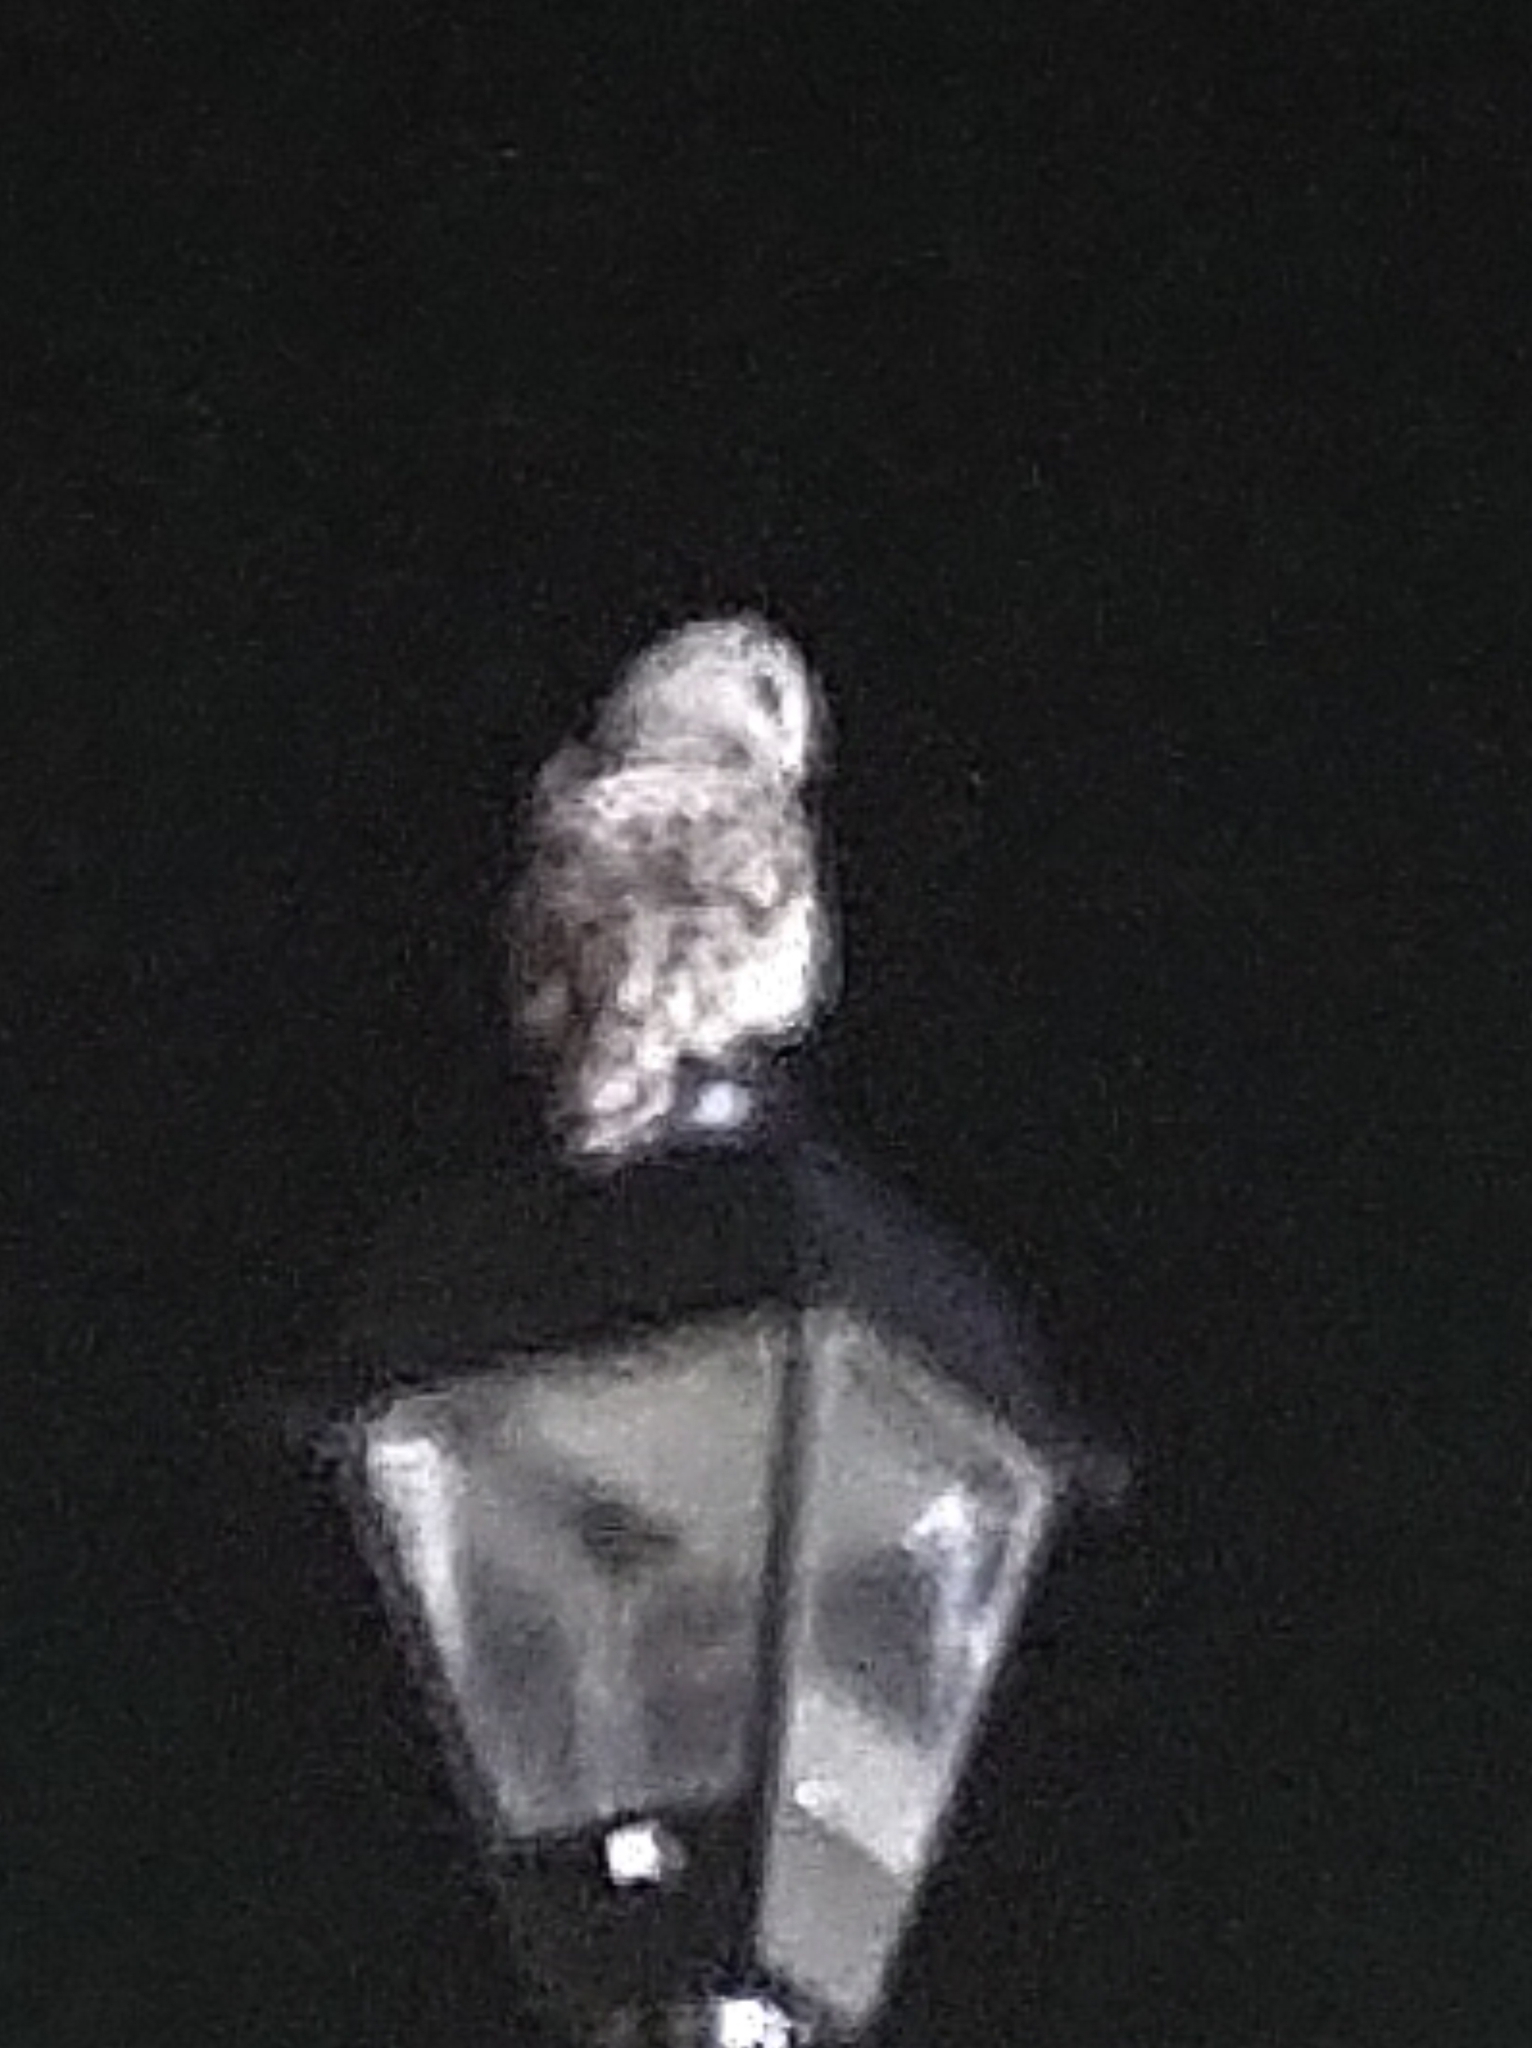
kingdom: Animalia
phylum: Chordata
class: Aves
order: Strigiformes
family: Strigidae
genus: Strix
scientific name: Strix varia
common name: Barred owl
